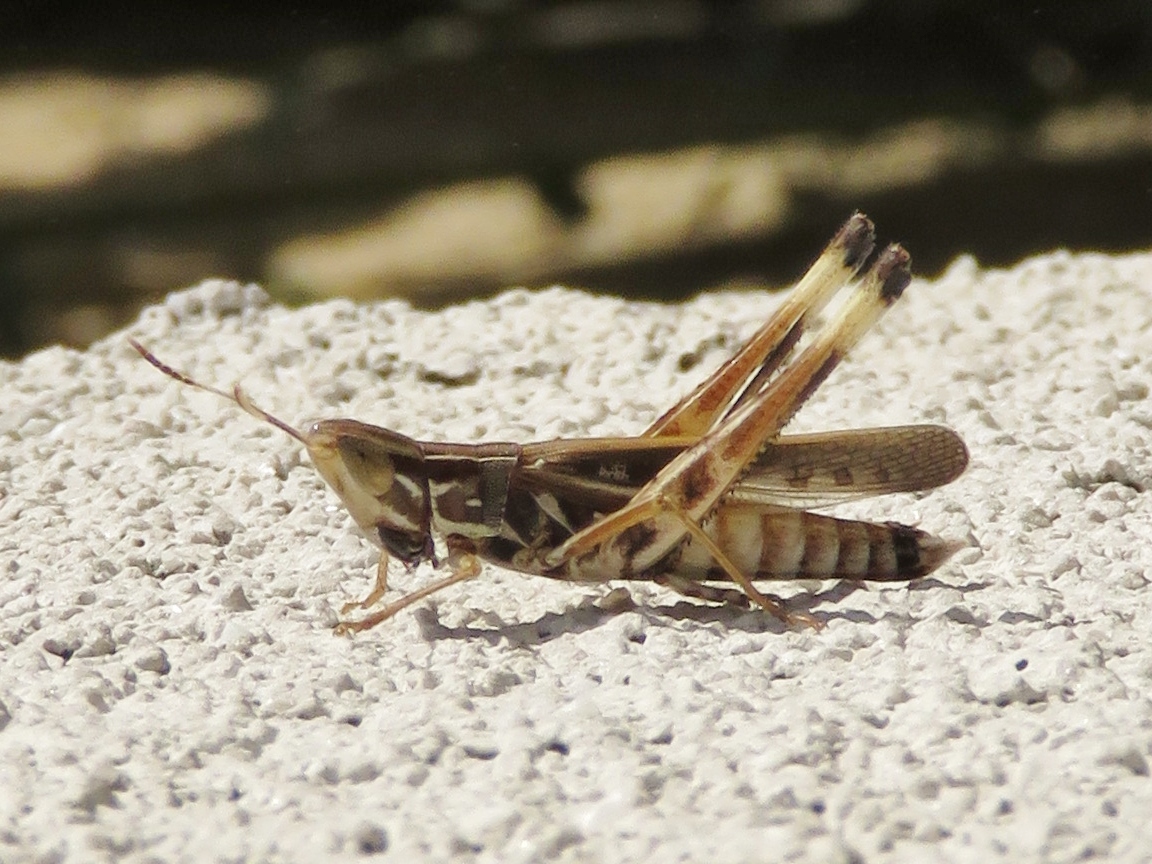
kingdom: Animalia
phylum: Arthropoda
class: Insecta
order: Orthoptera
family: Acrididae
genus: Syrbula
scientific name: Syrbula admirabilis
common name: Handsome grasshopper
